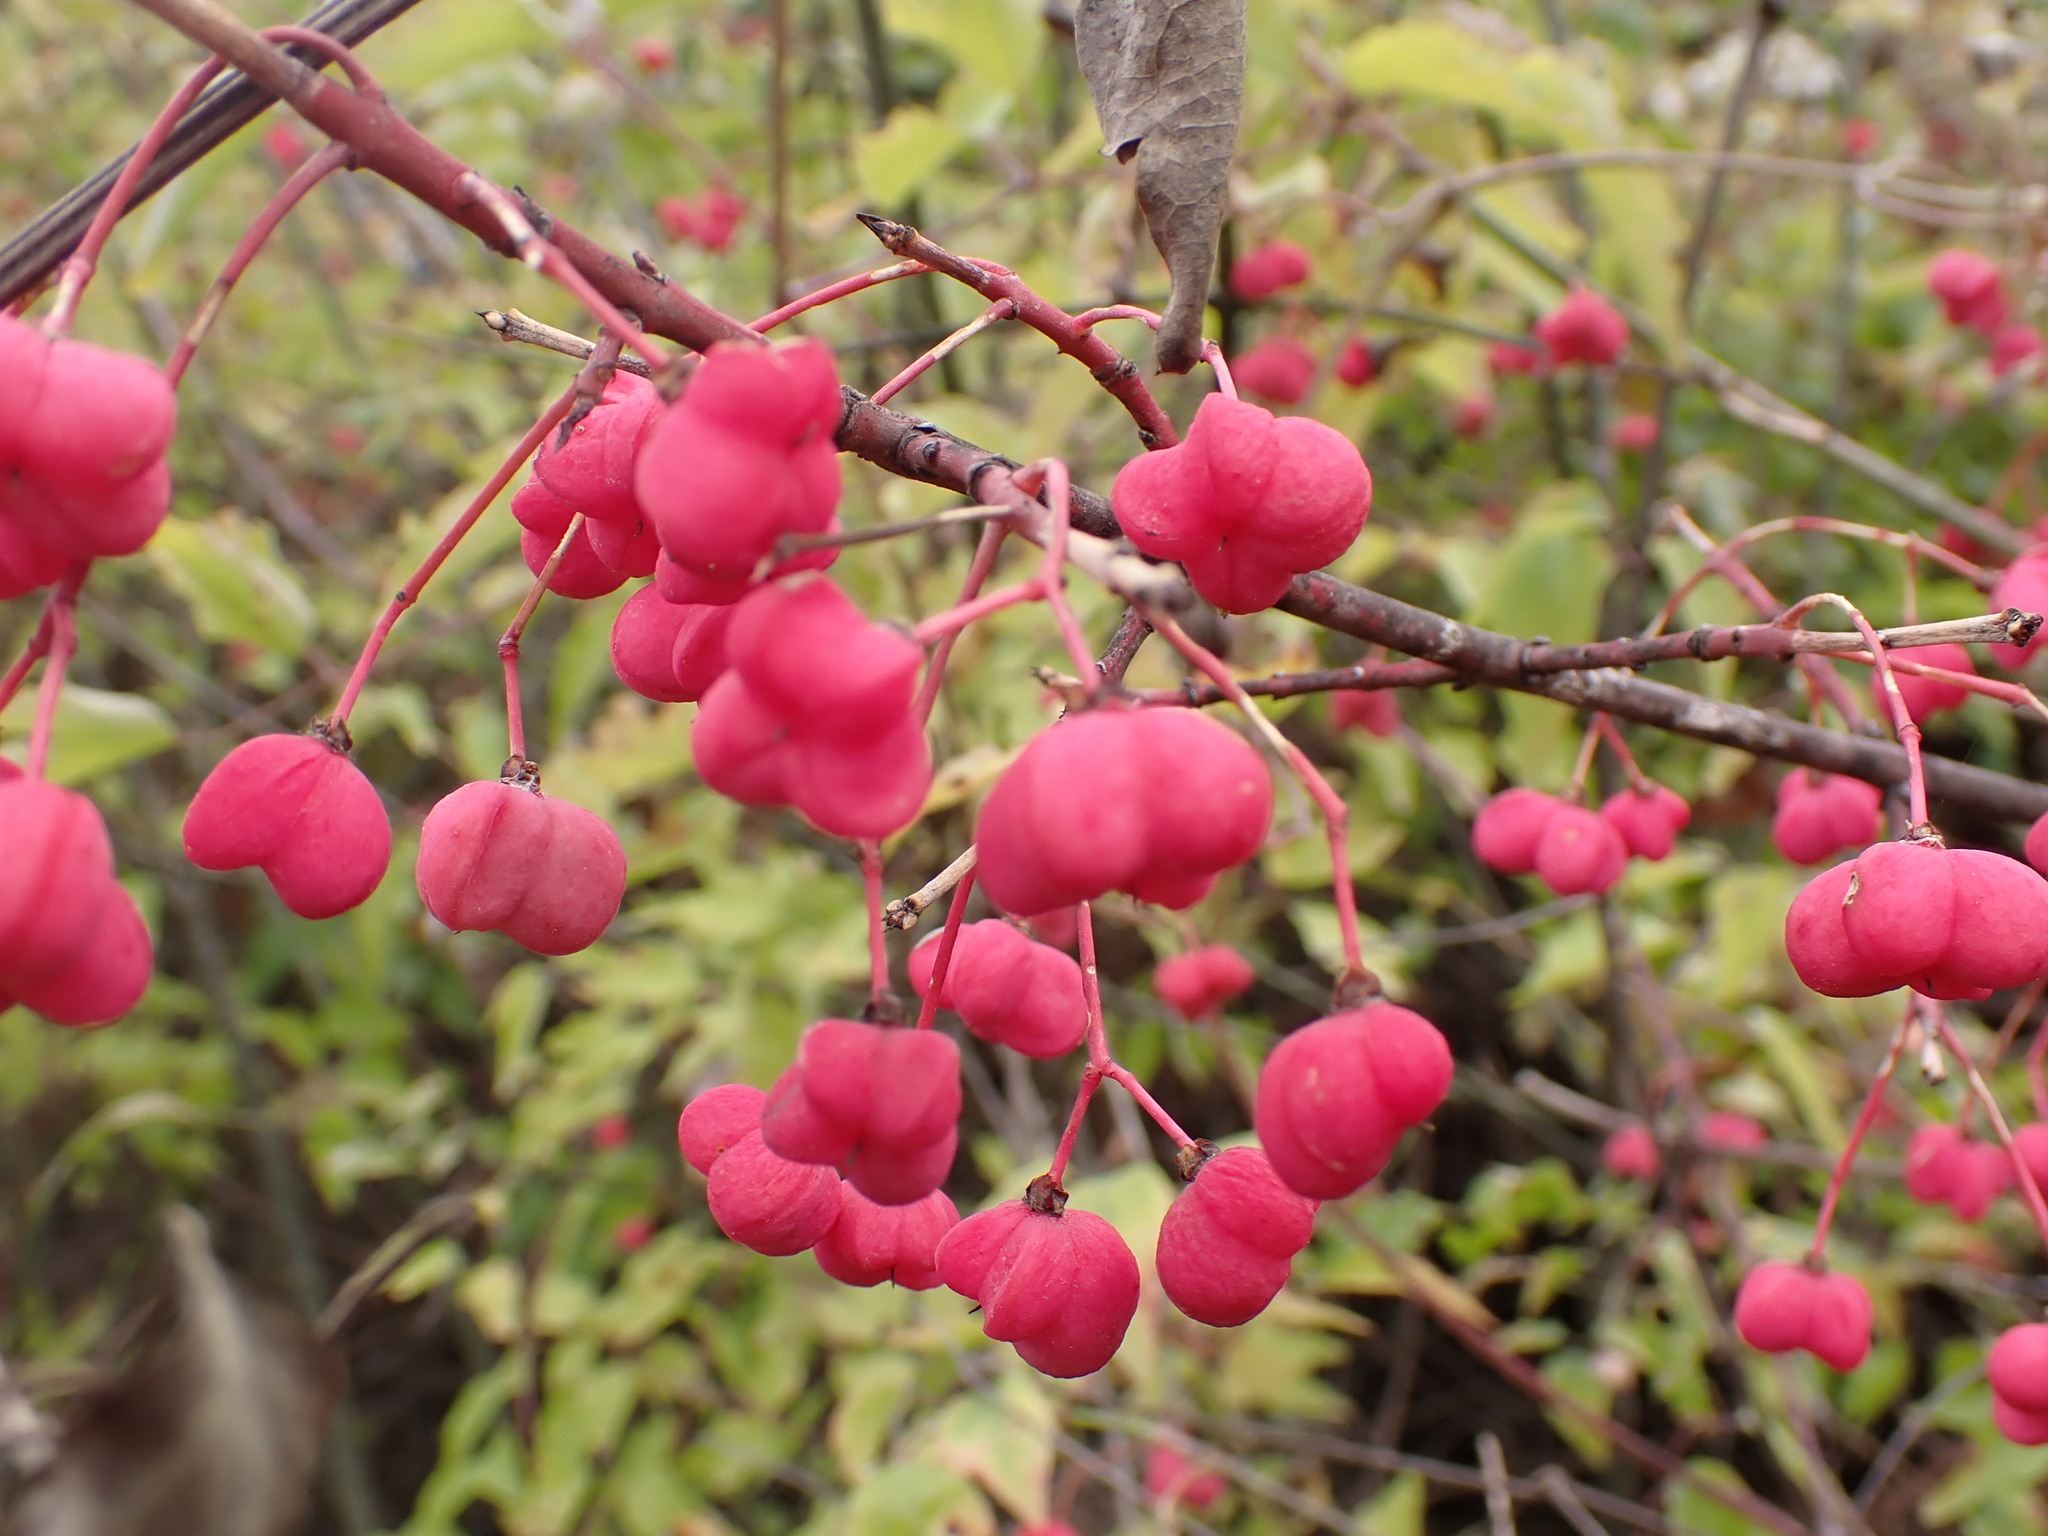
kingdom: Plantae
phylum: Tracheophyta
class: Magnoliopsida
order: Celastrales
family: Celastraceae
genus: Euonymus
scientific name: Euonymus europaeus
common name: Spindle
